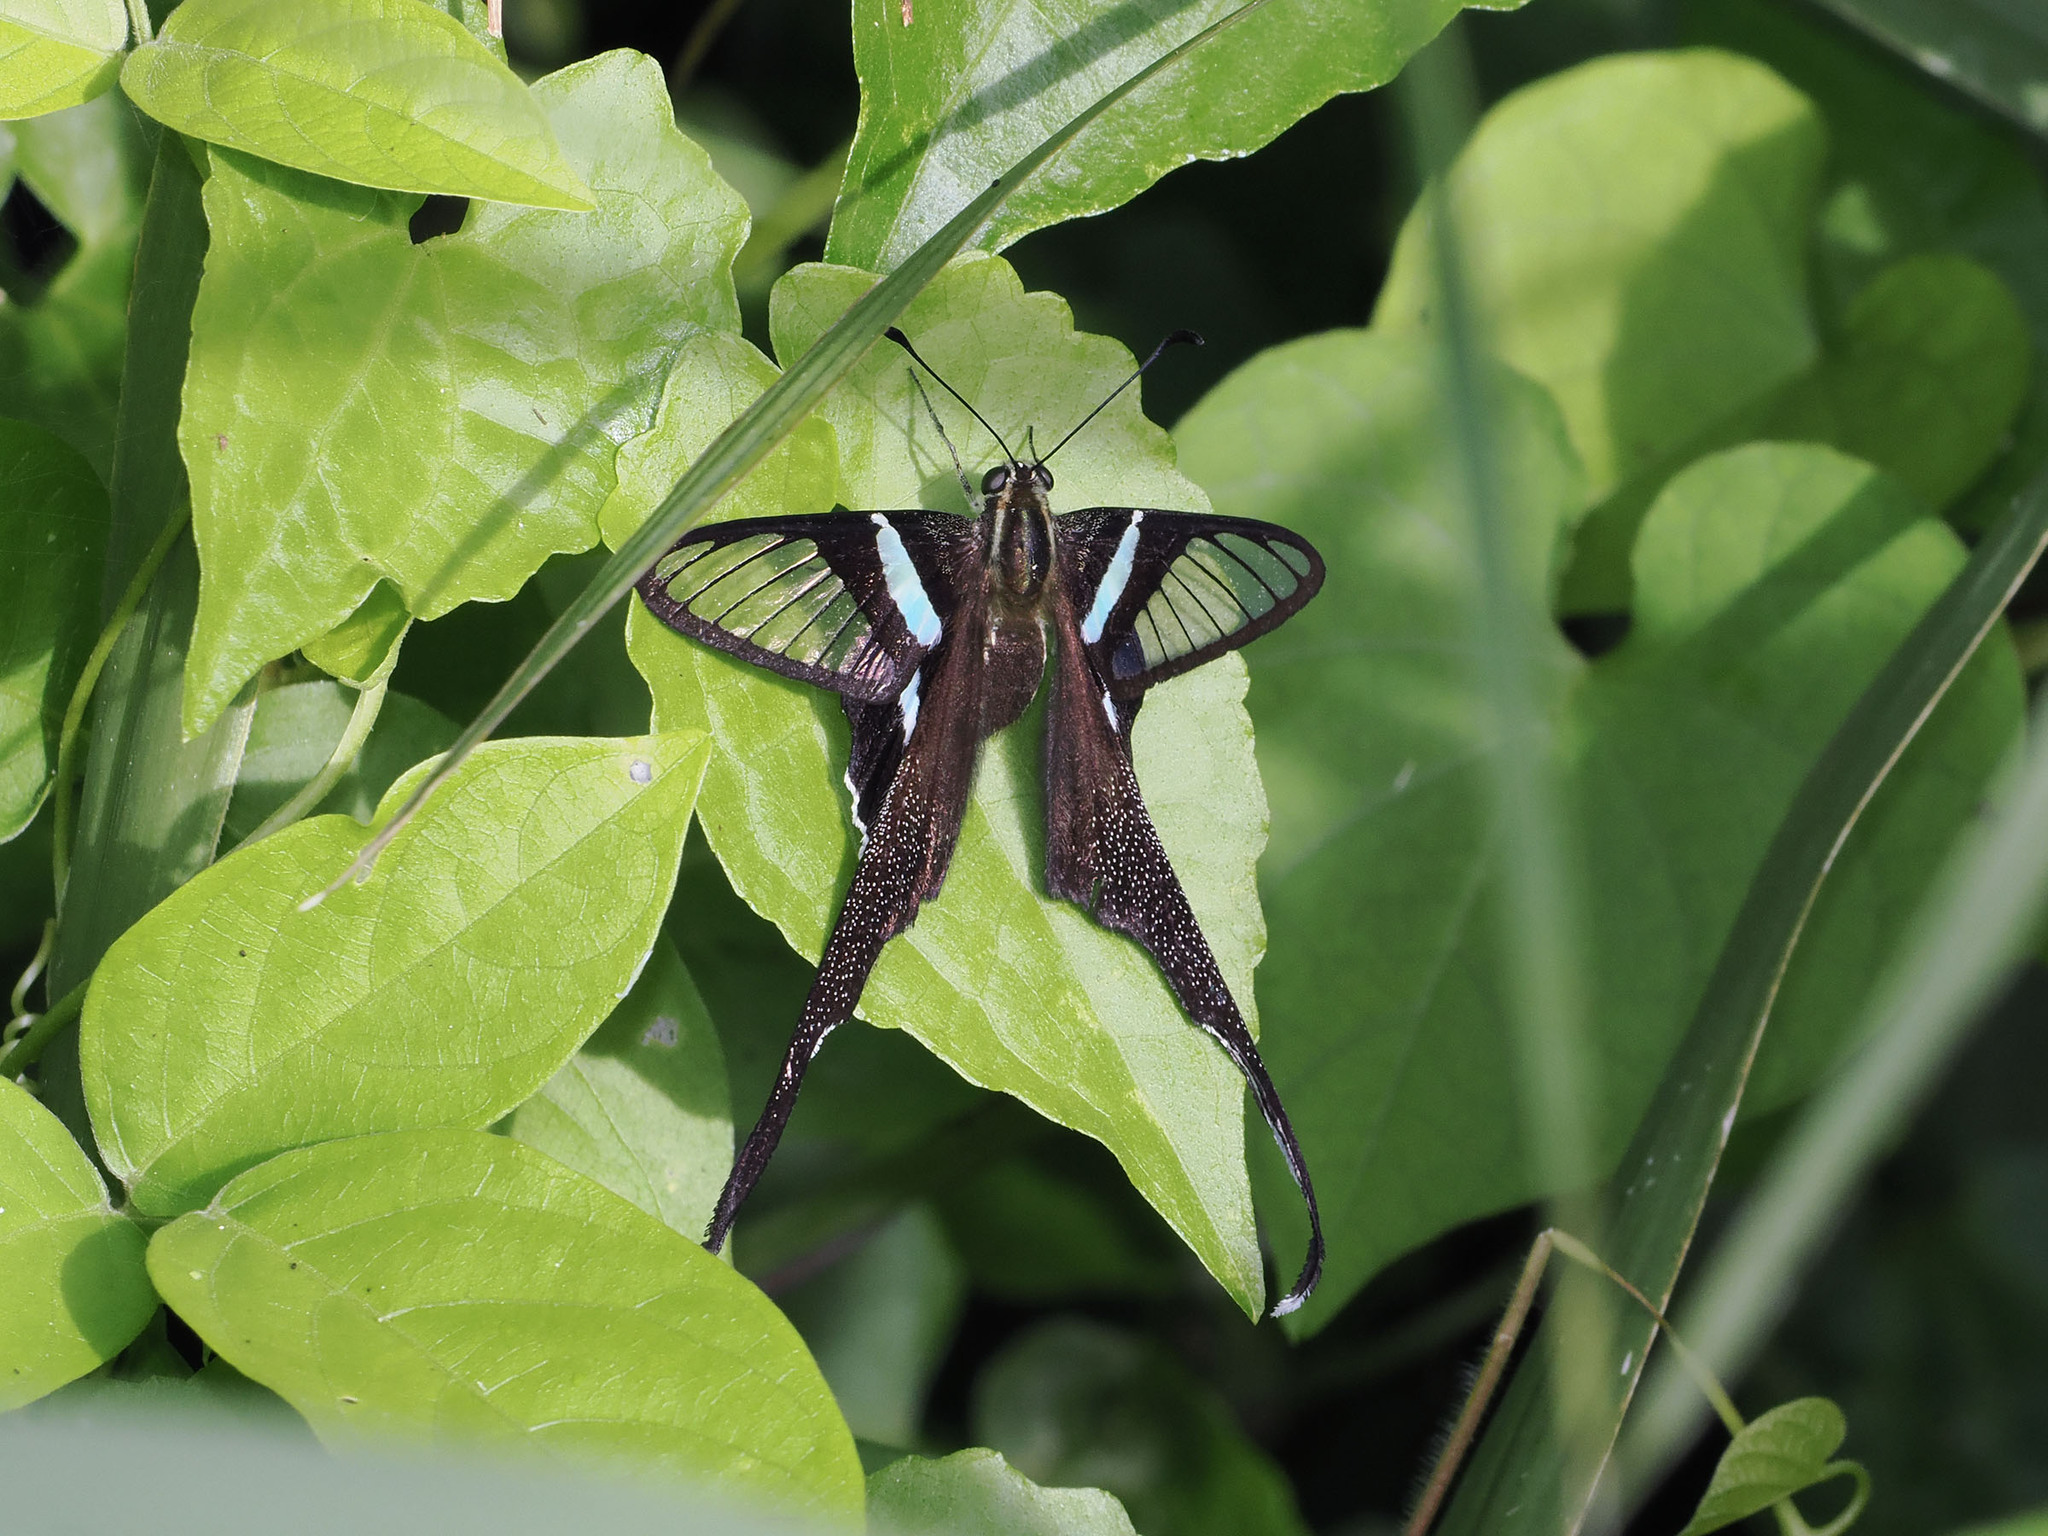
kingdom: Animalia
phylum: Arthropoda
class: Insecta
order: Lepidoptera
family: Papilionidae
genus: Lamproptera
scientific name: Lamproptera meges
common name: Green dragontail
